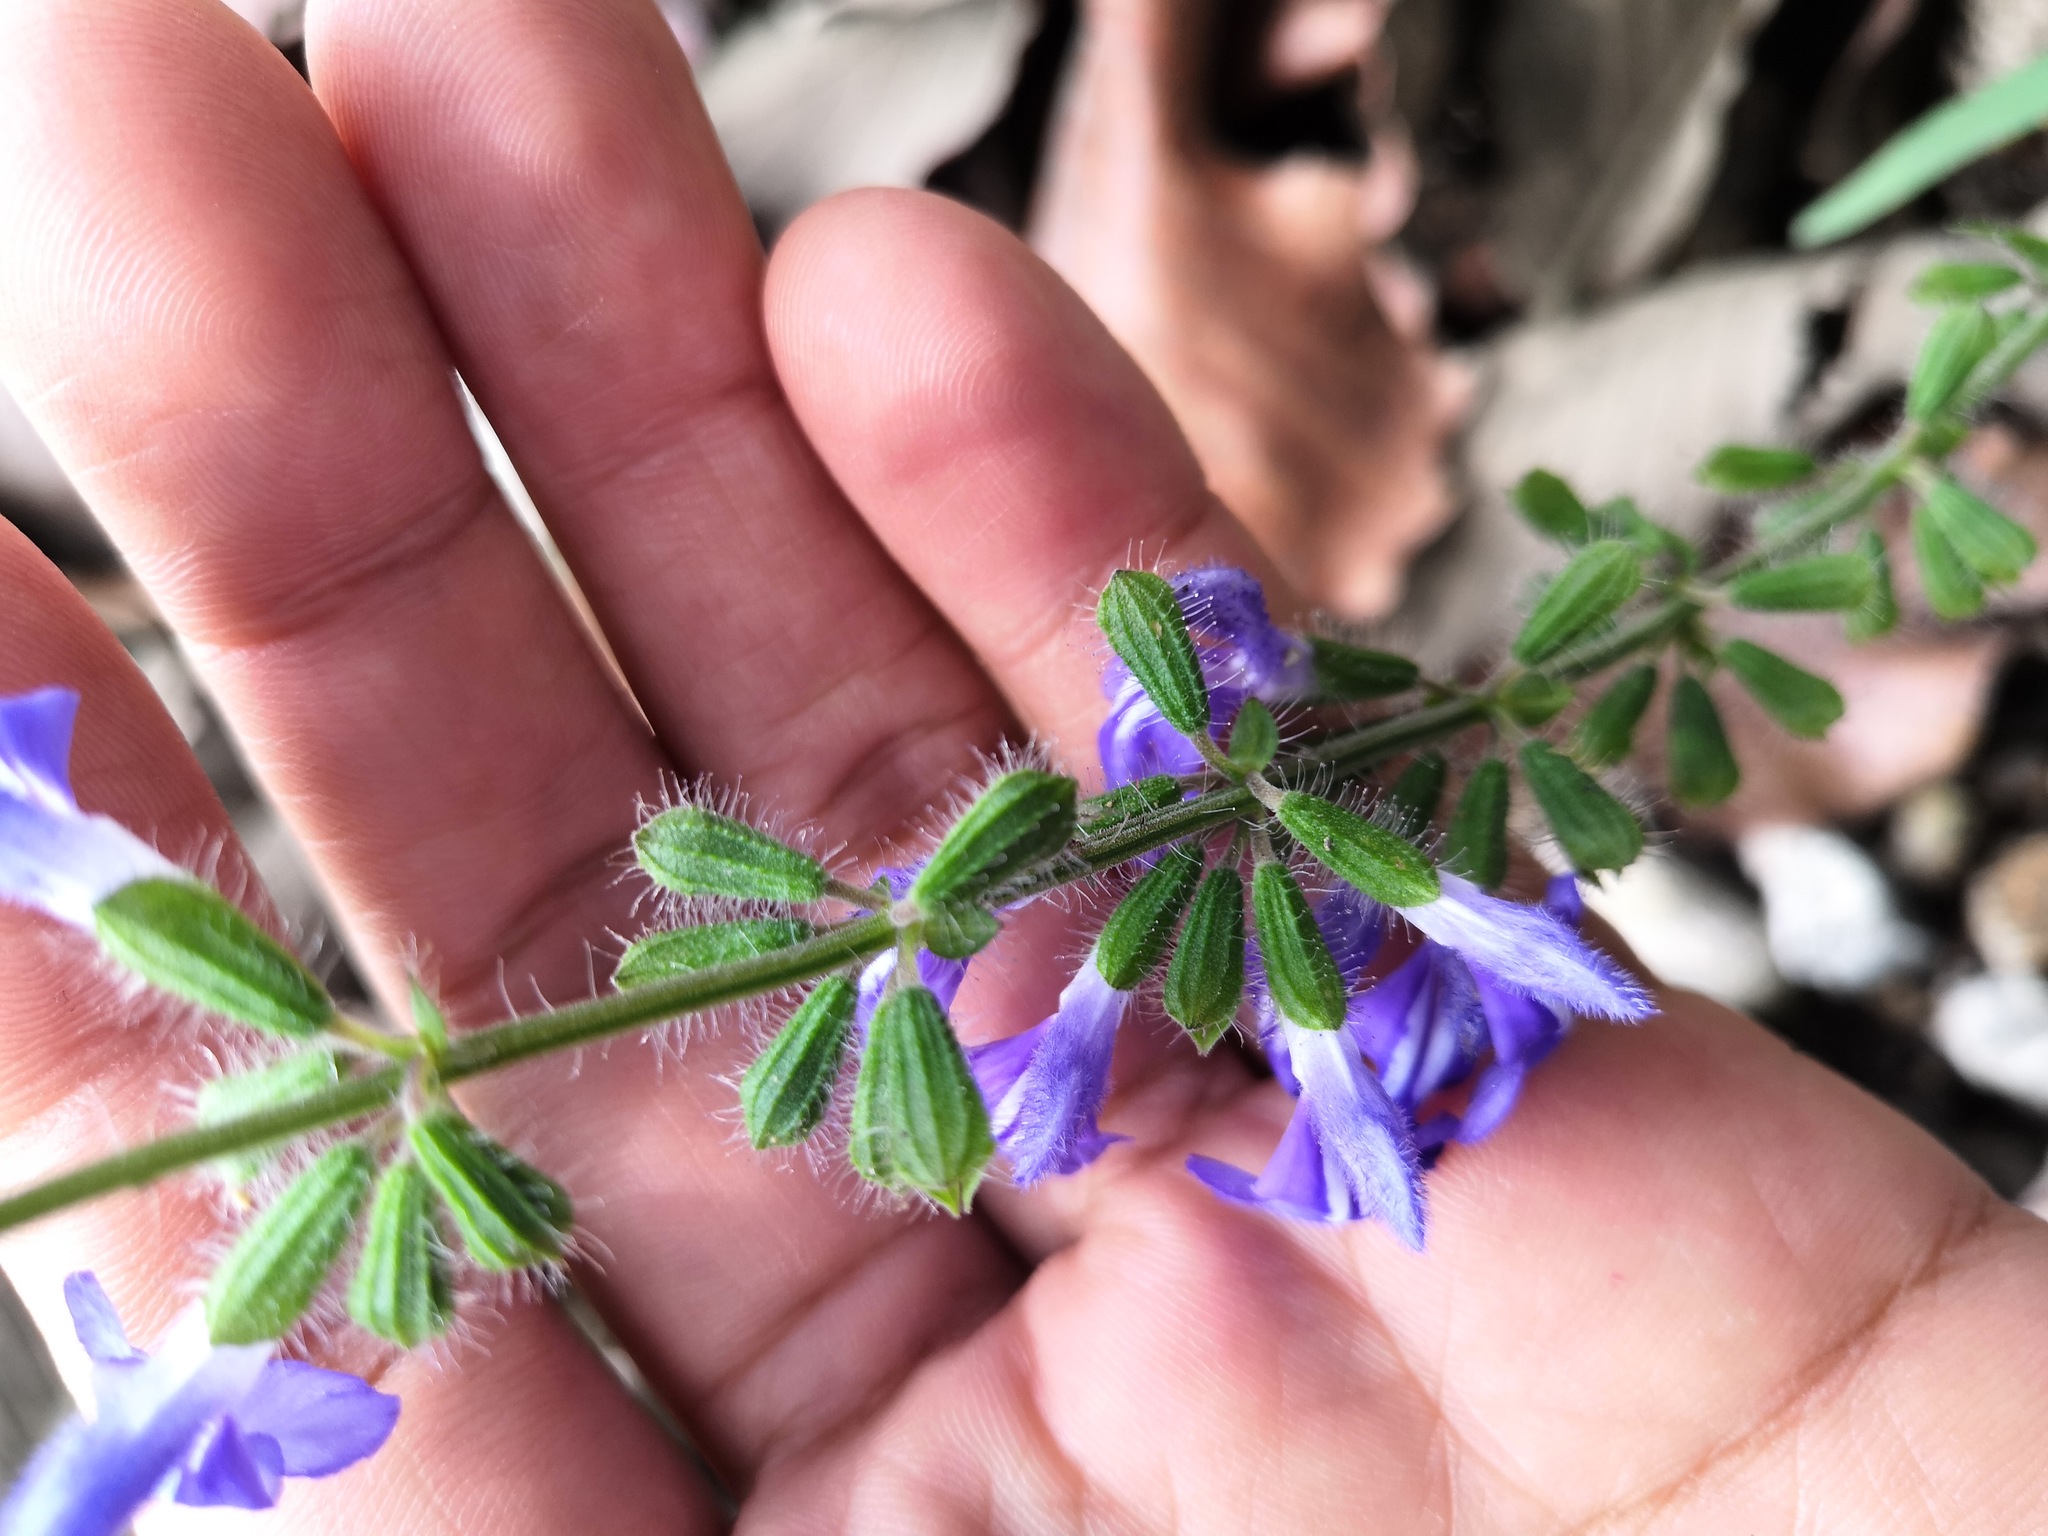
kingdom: Plantae
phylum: Tracheophyta
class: Magnoliopsida
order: Lamiales
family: Lamiaceae
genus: Salvia
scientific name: Salvia heterotricha
